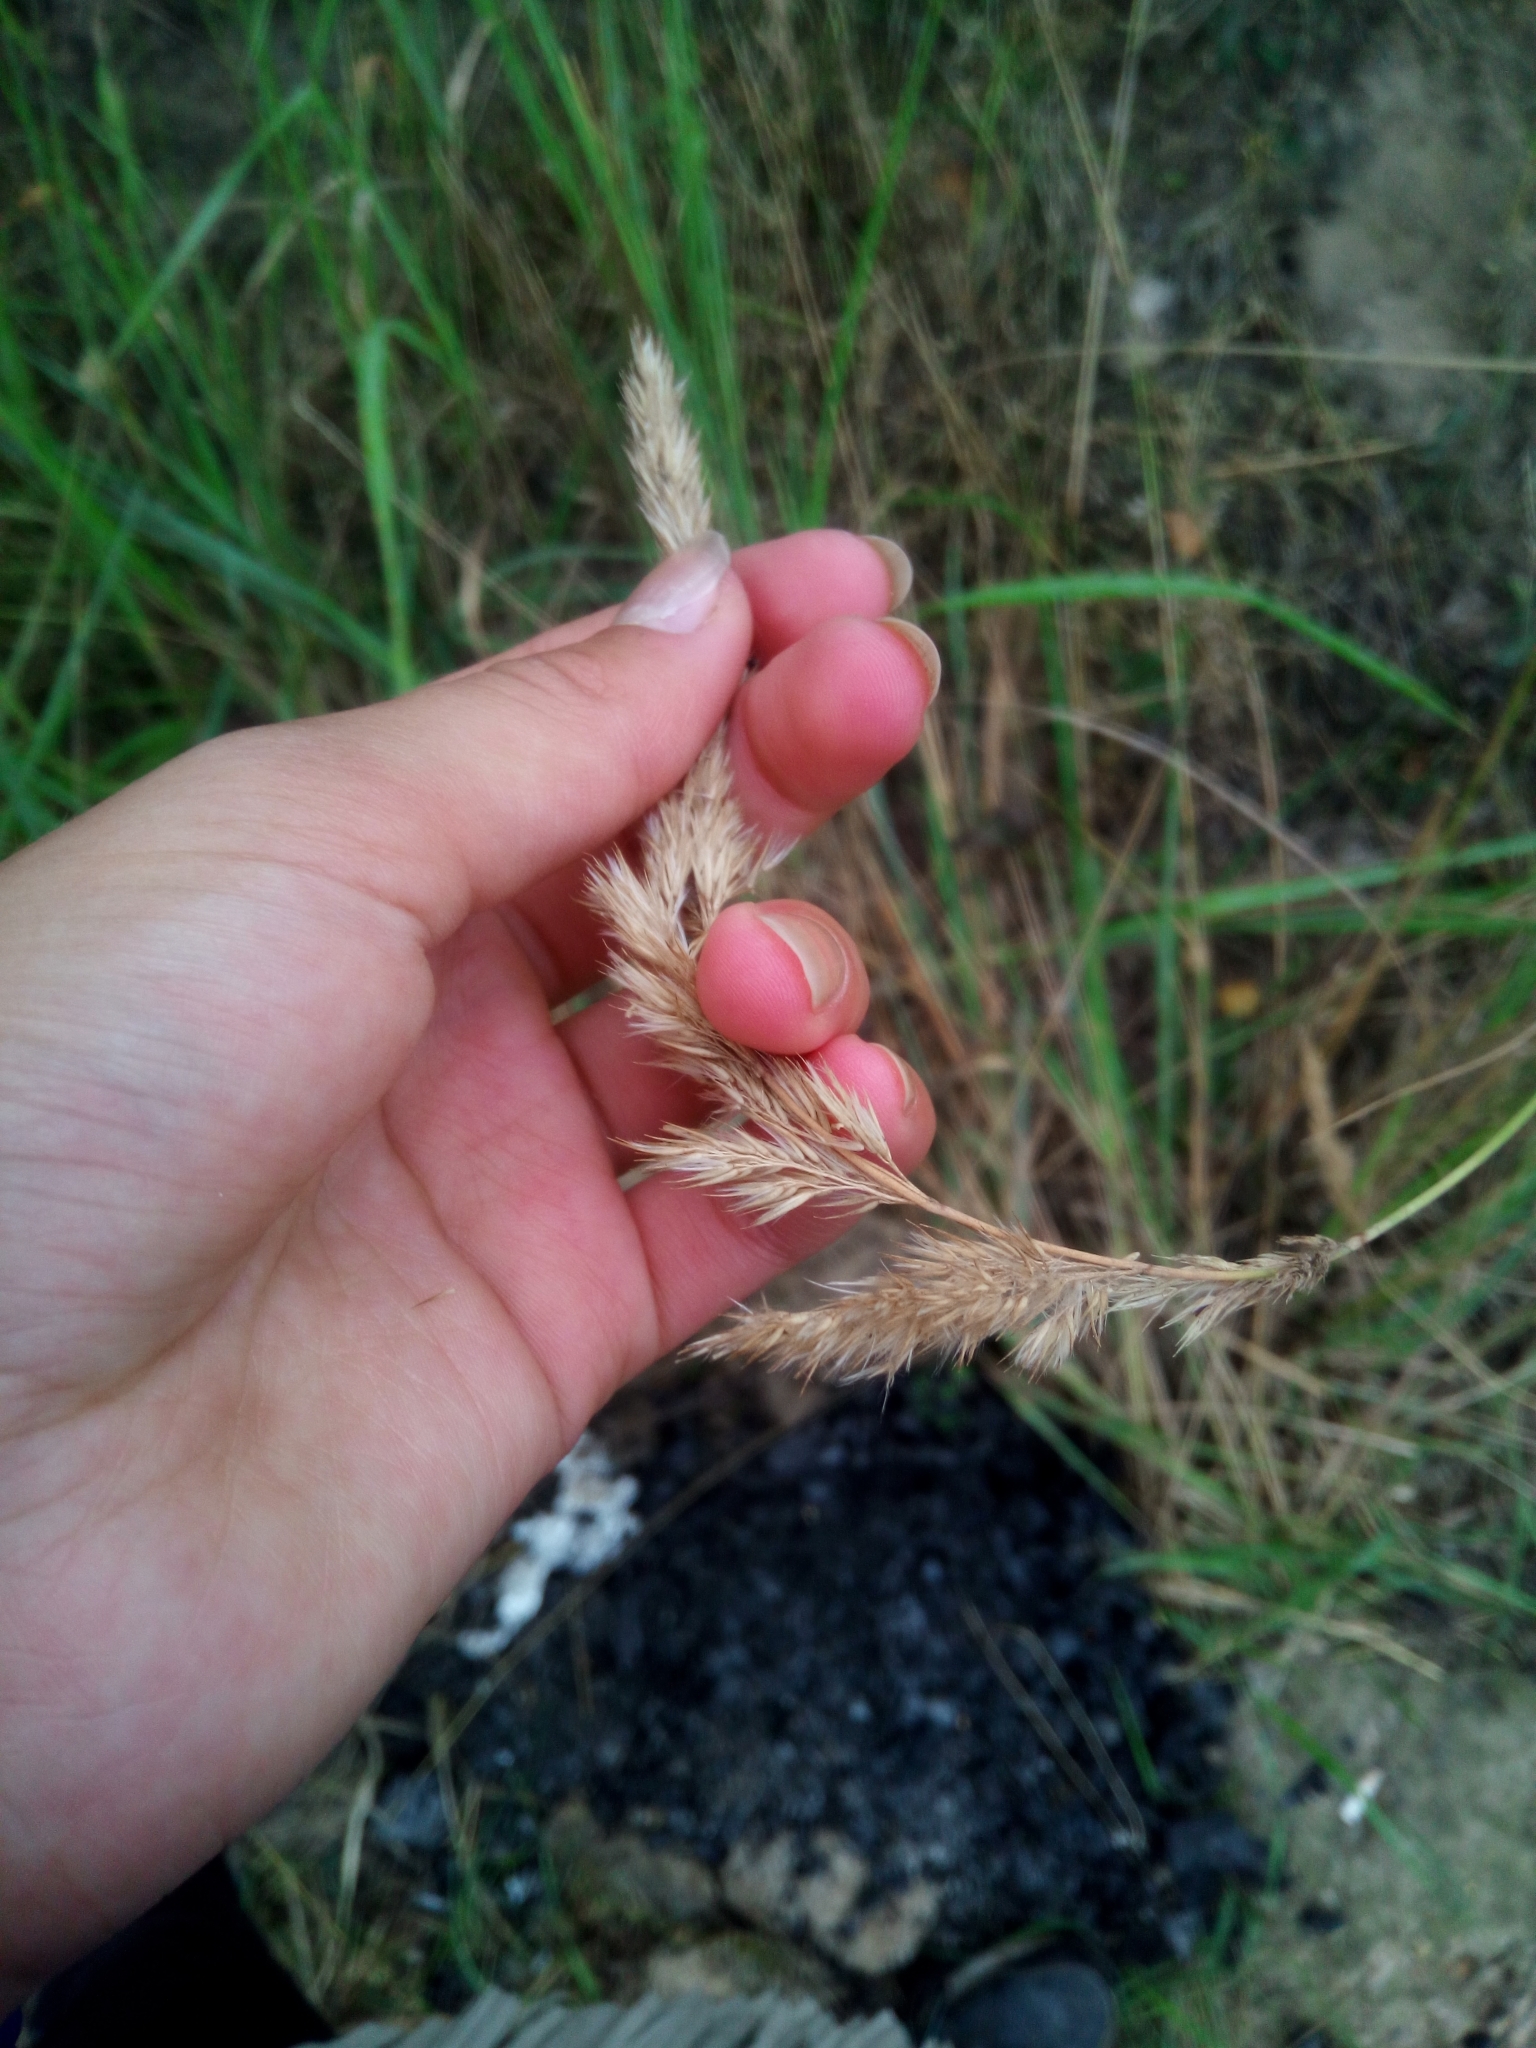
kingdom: Plantae
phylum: Tracheophyta
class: Liliopsida
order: Poales
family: Poaceae
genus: Calamagrostis
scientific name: Calamagrostis epigejos
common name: Wood small-reed
